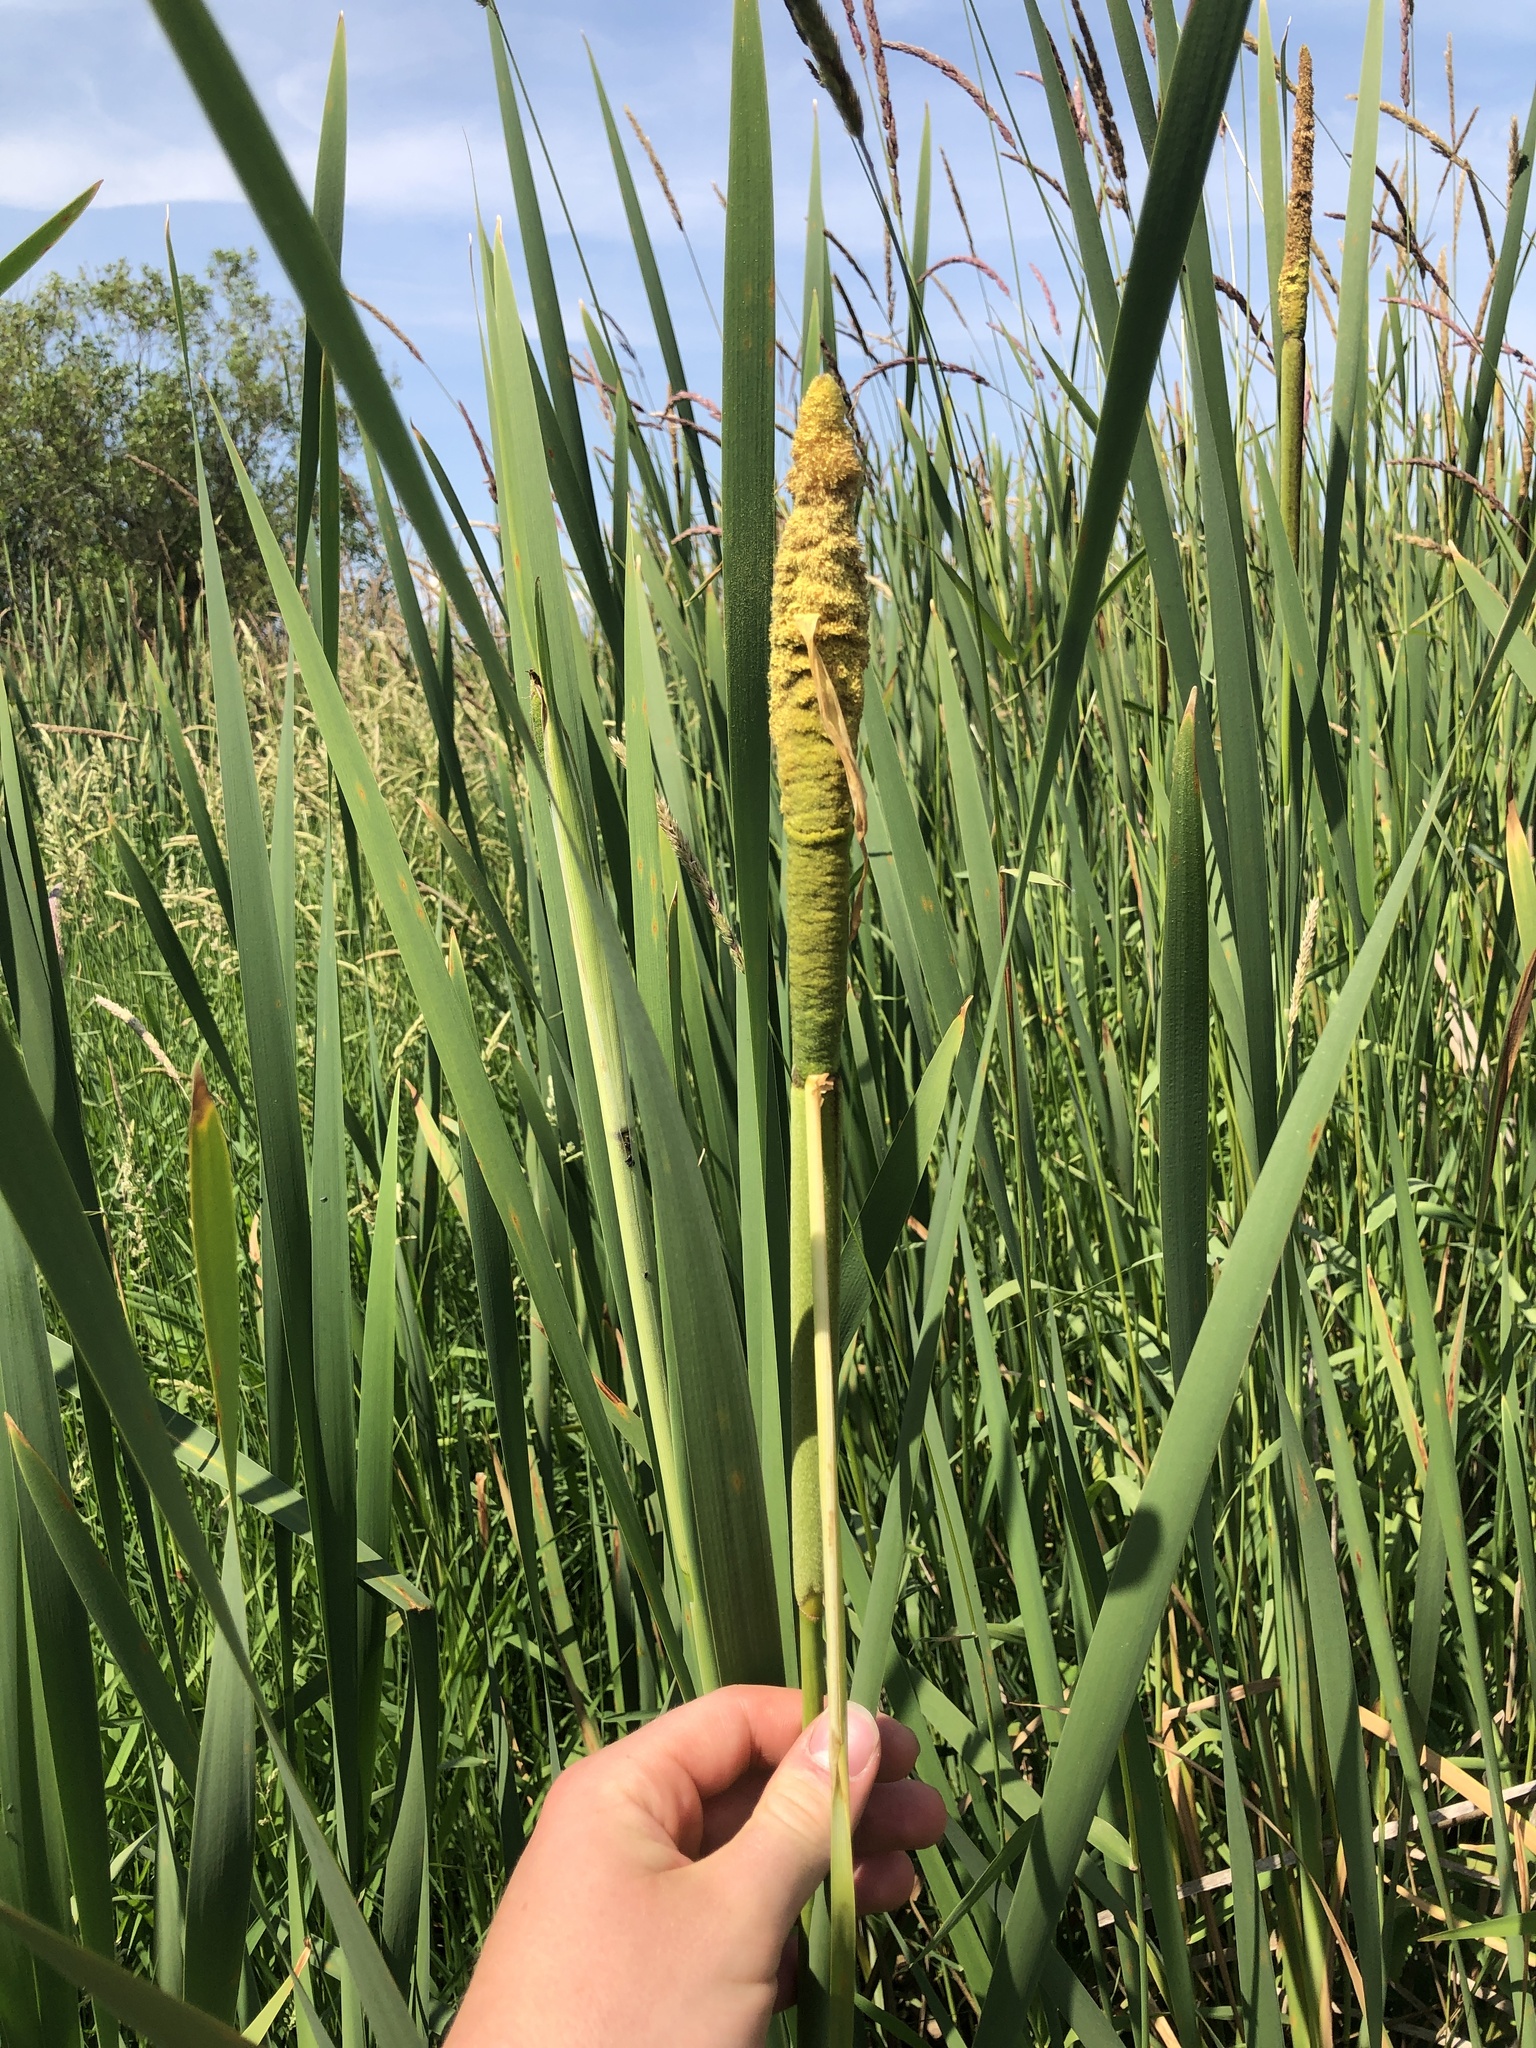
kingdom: Plantae
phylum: Tracheophyta
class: Liliopsida
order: Poales
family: Typhaceae
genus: Typha
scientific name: Typha latifolia
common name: Broadleaf cattail
